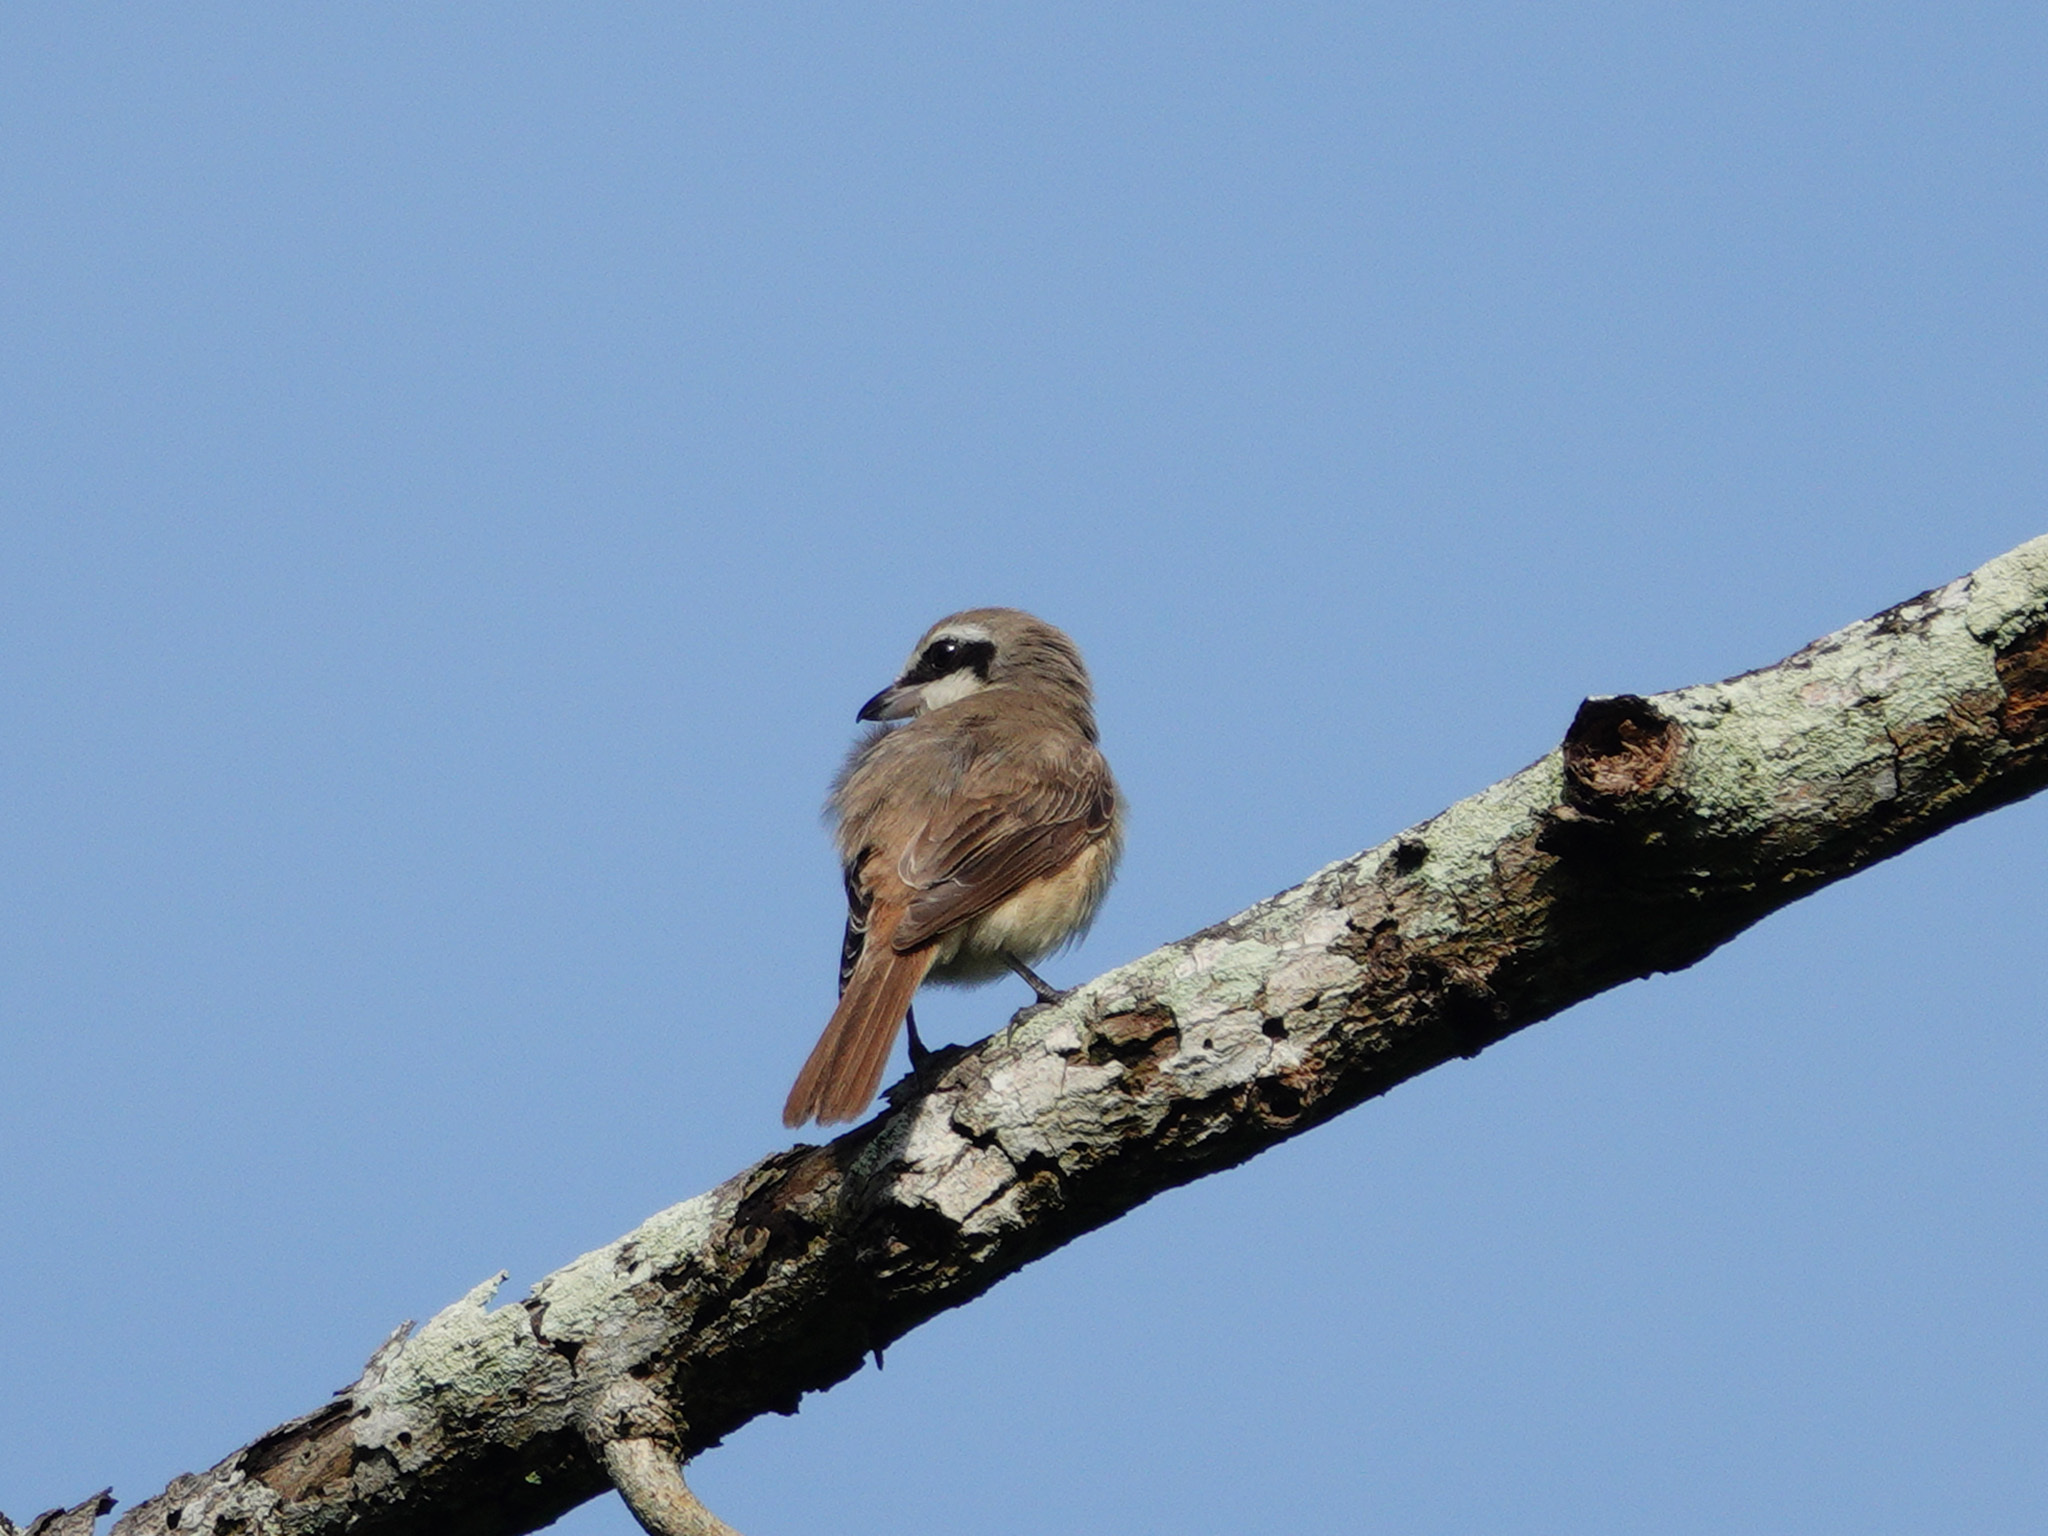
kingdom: Animalia
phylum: Chordata
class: Aves
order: Passeriformes
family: Laniidae
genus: Lanius
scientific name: Lanius cristatus
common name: Brown shrike
